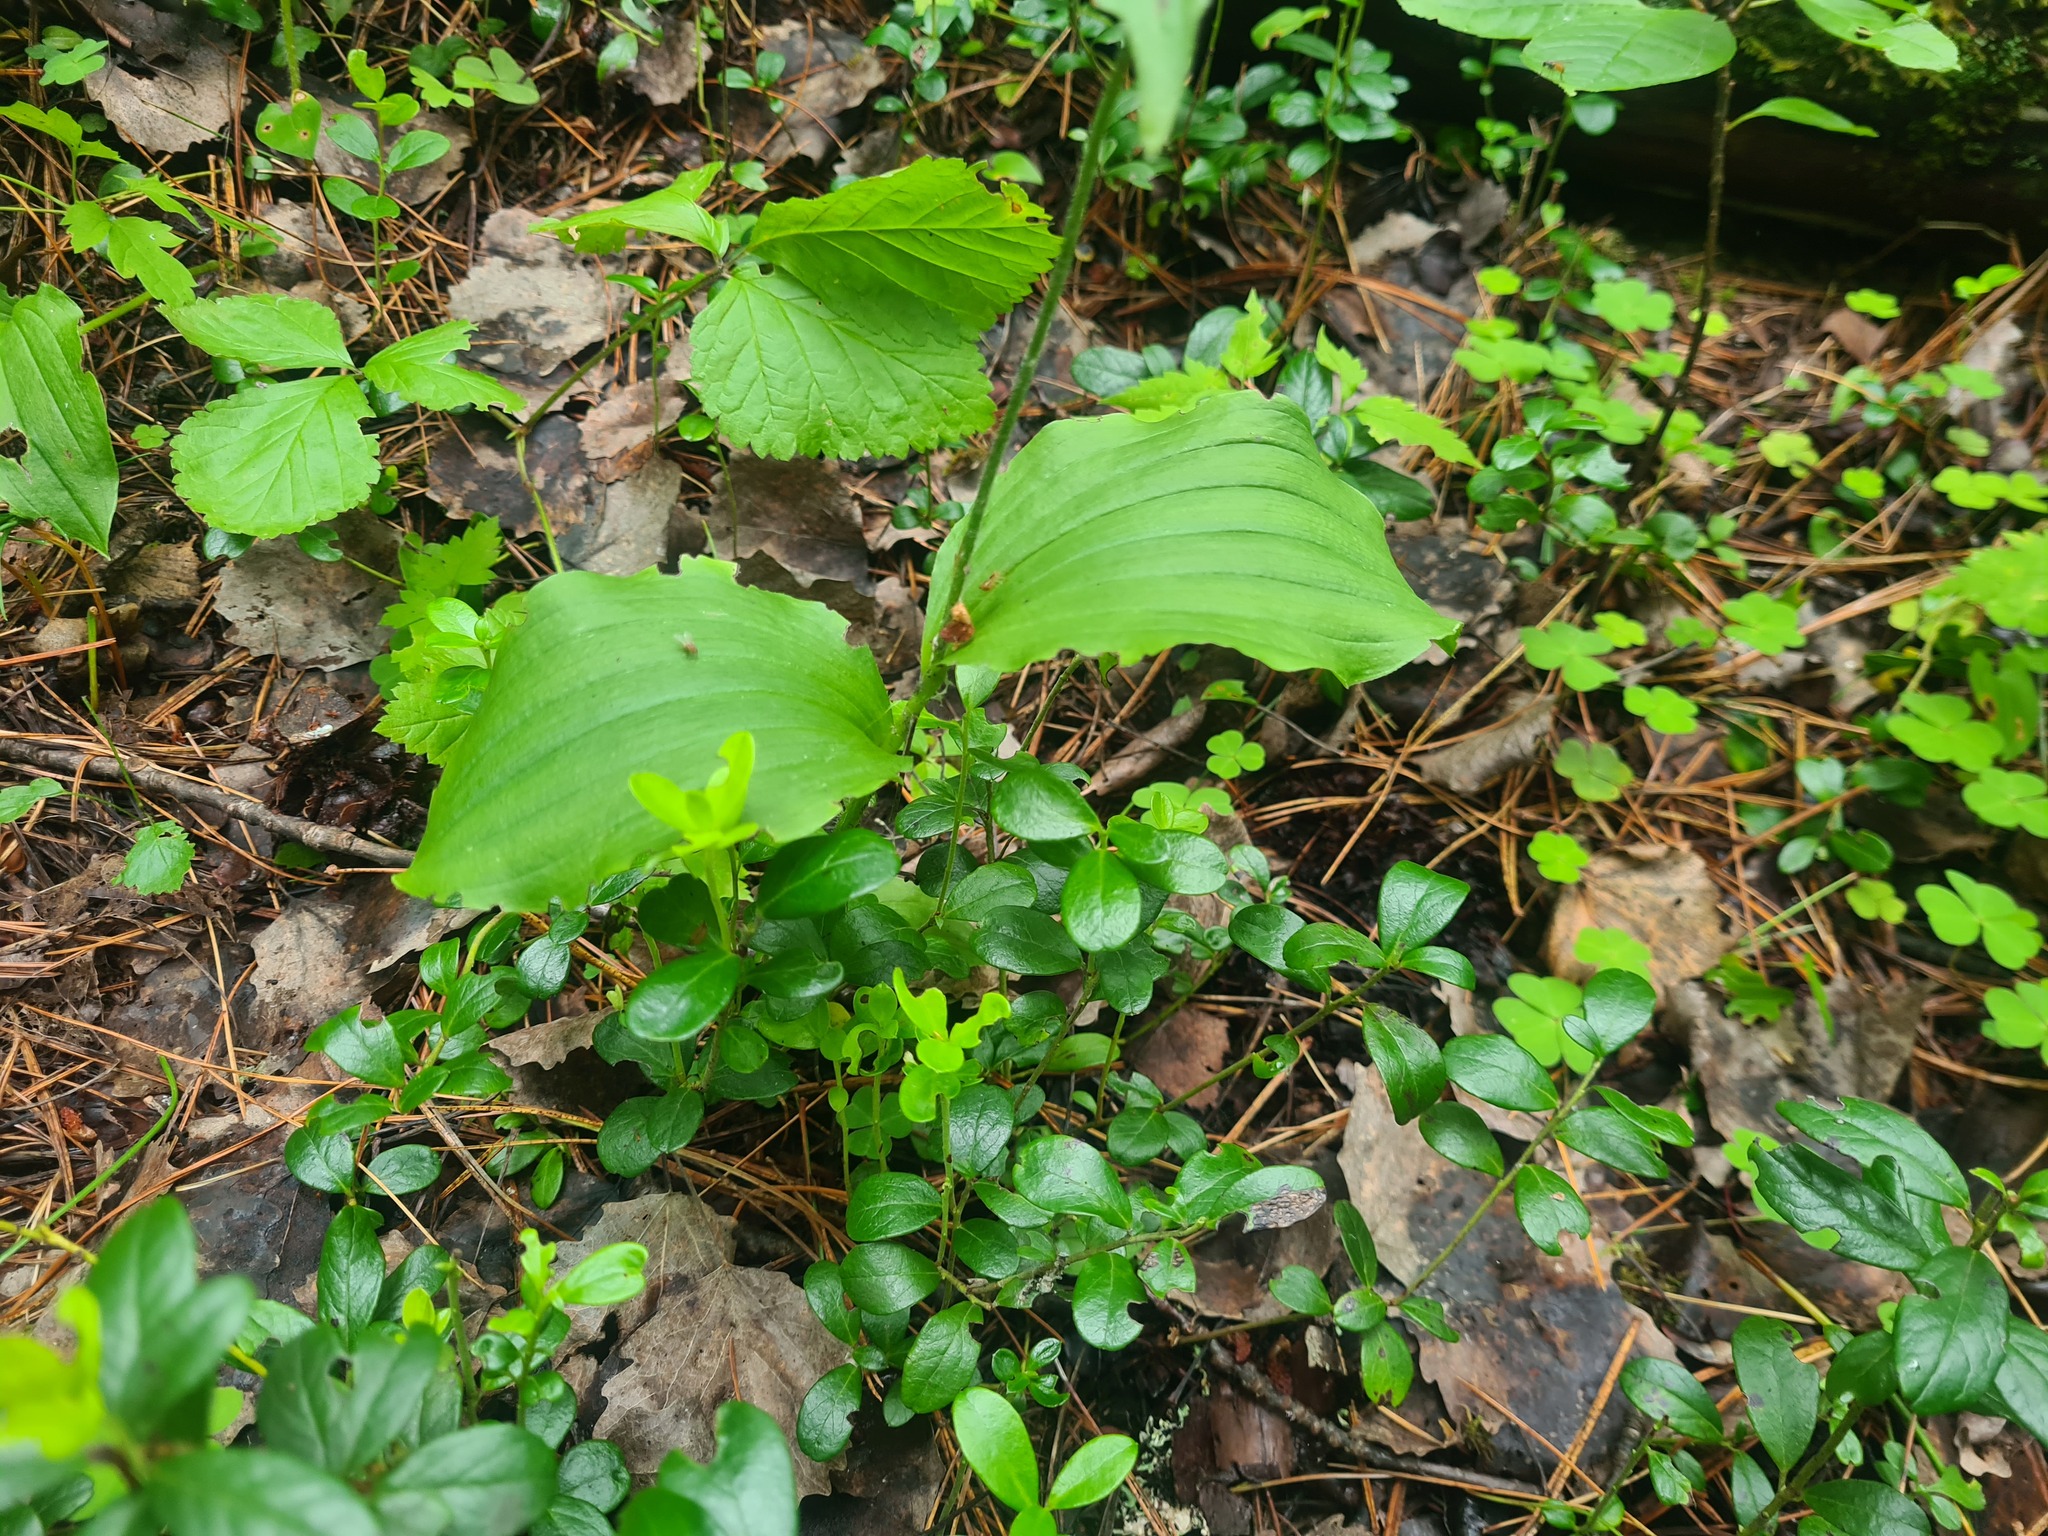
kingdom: Plantae
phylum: Tracheophyta
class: Liliopsida
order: Asparagales
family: Orchidaceae
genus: Cypripedium
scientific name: Cypripedium guttatum
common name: Pink lady slipper
